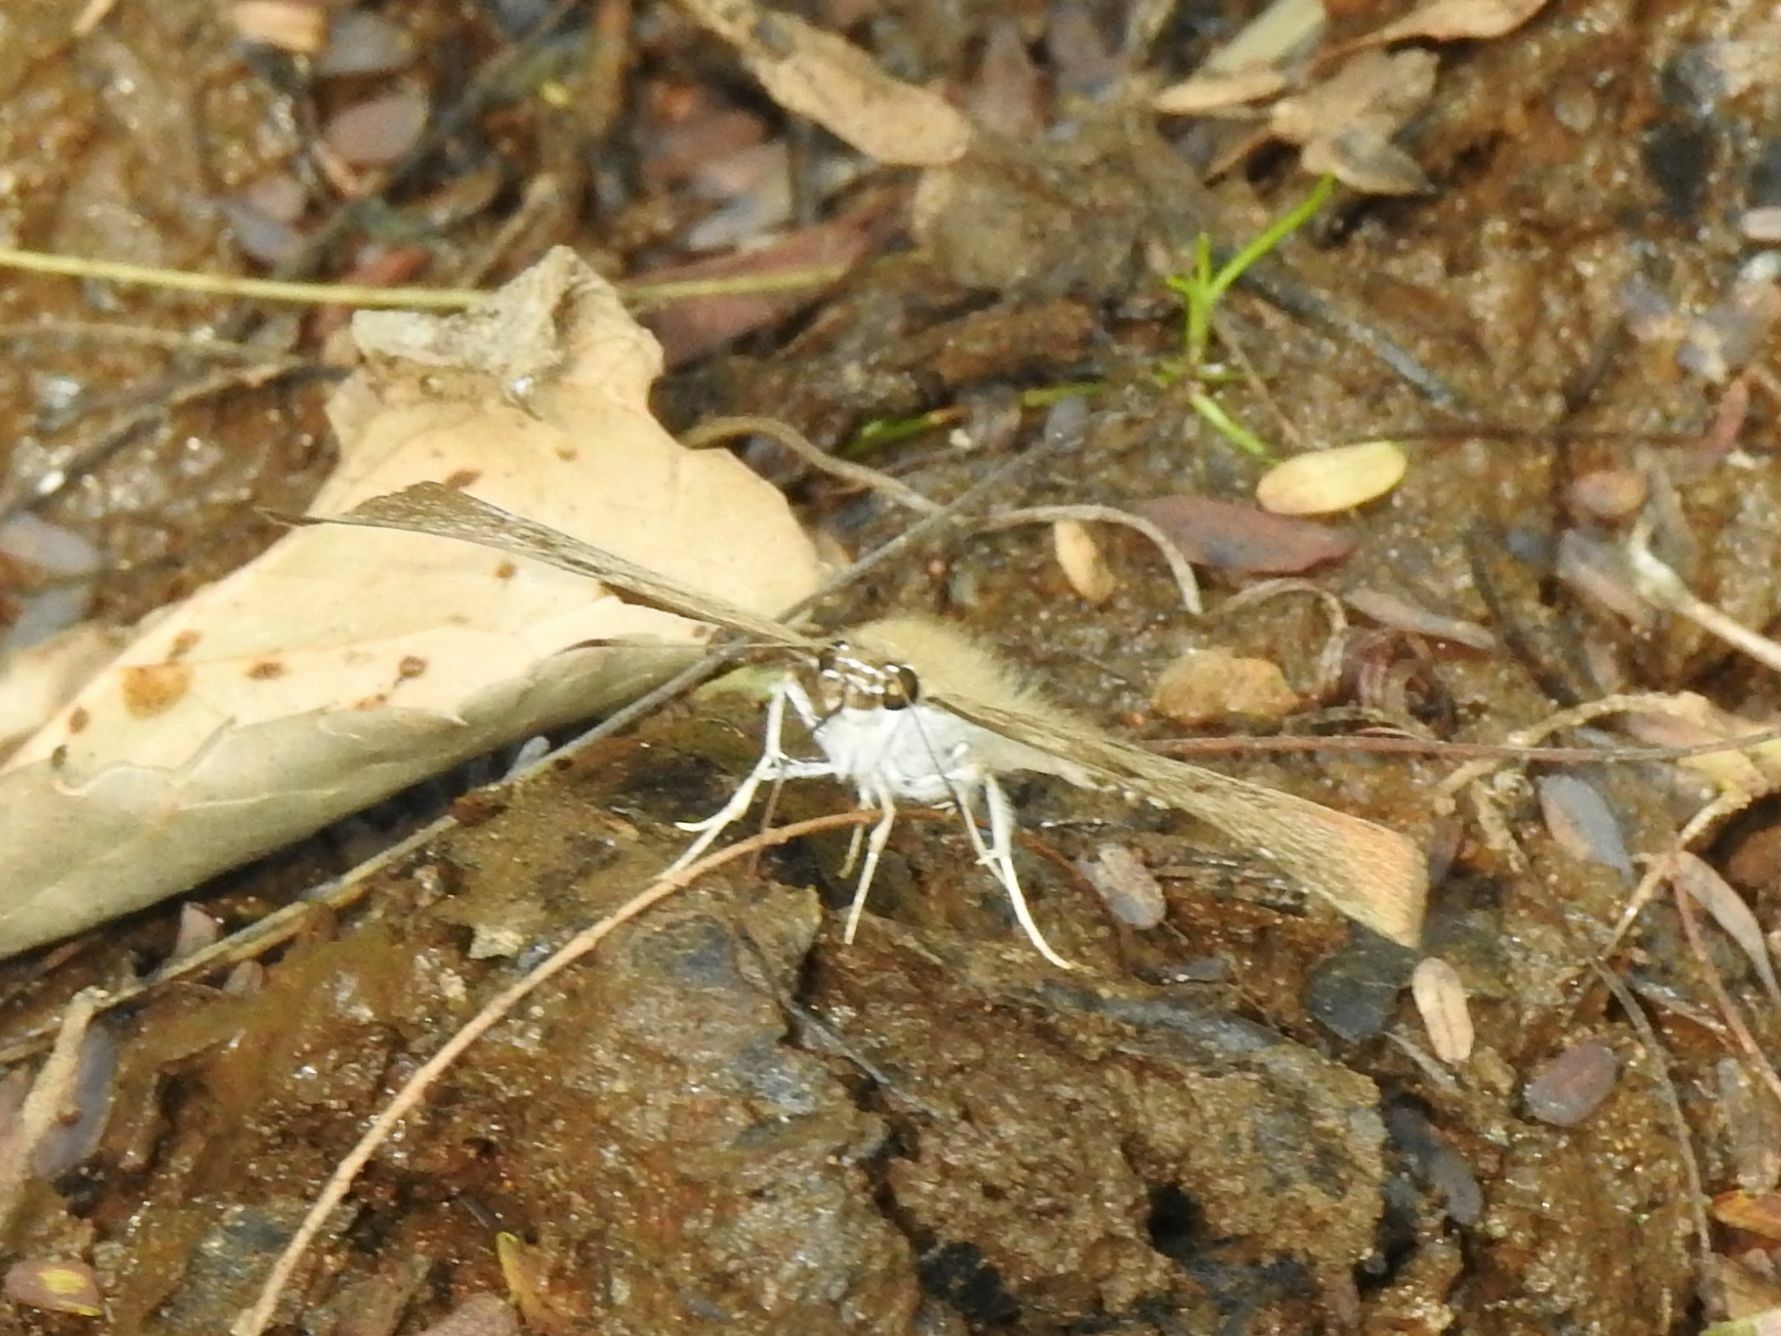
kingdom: Animalia
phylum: Arthropoda
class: Insecta
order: Lepidoptera
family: Hesperiidae
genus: Tagiades
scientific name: Tagiades flesus
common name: Clouded flat
